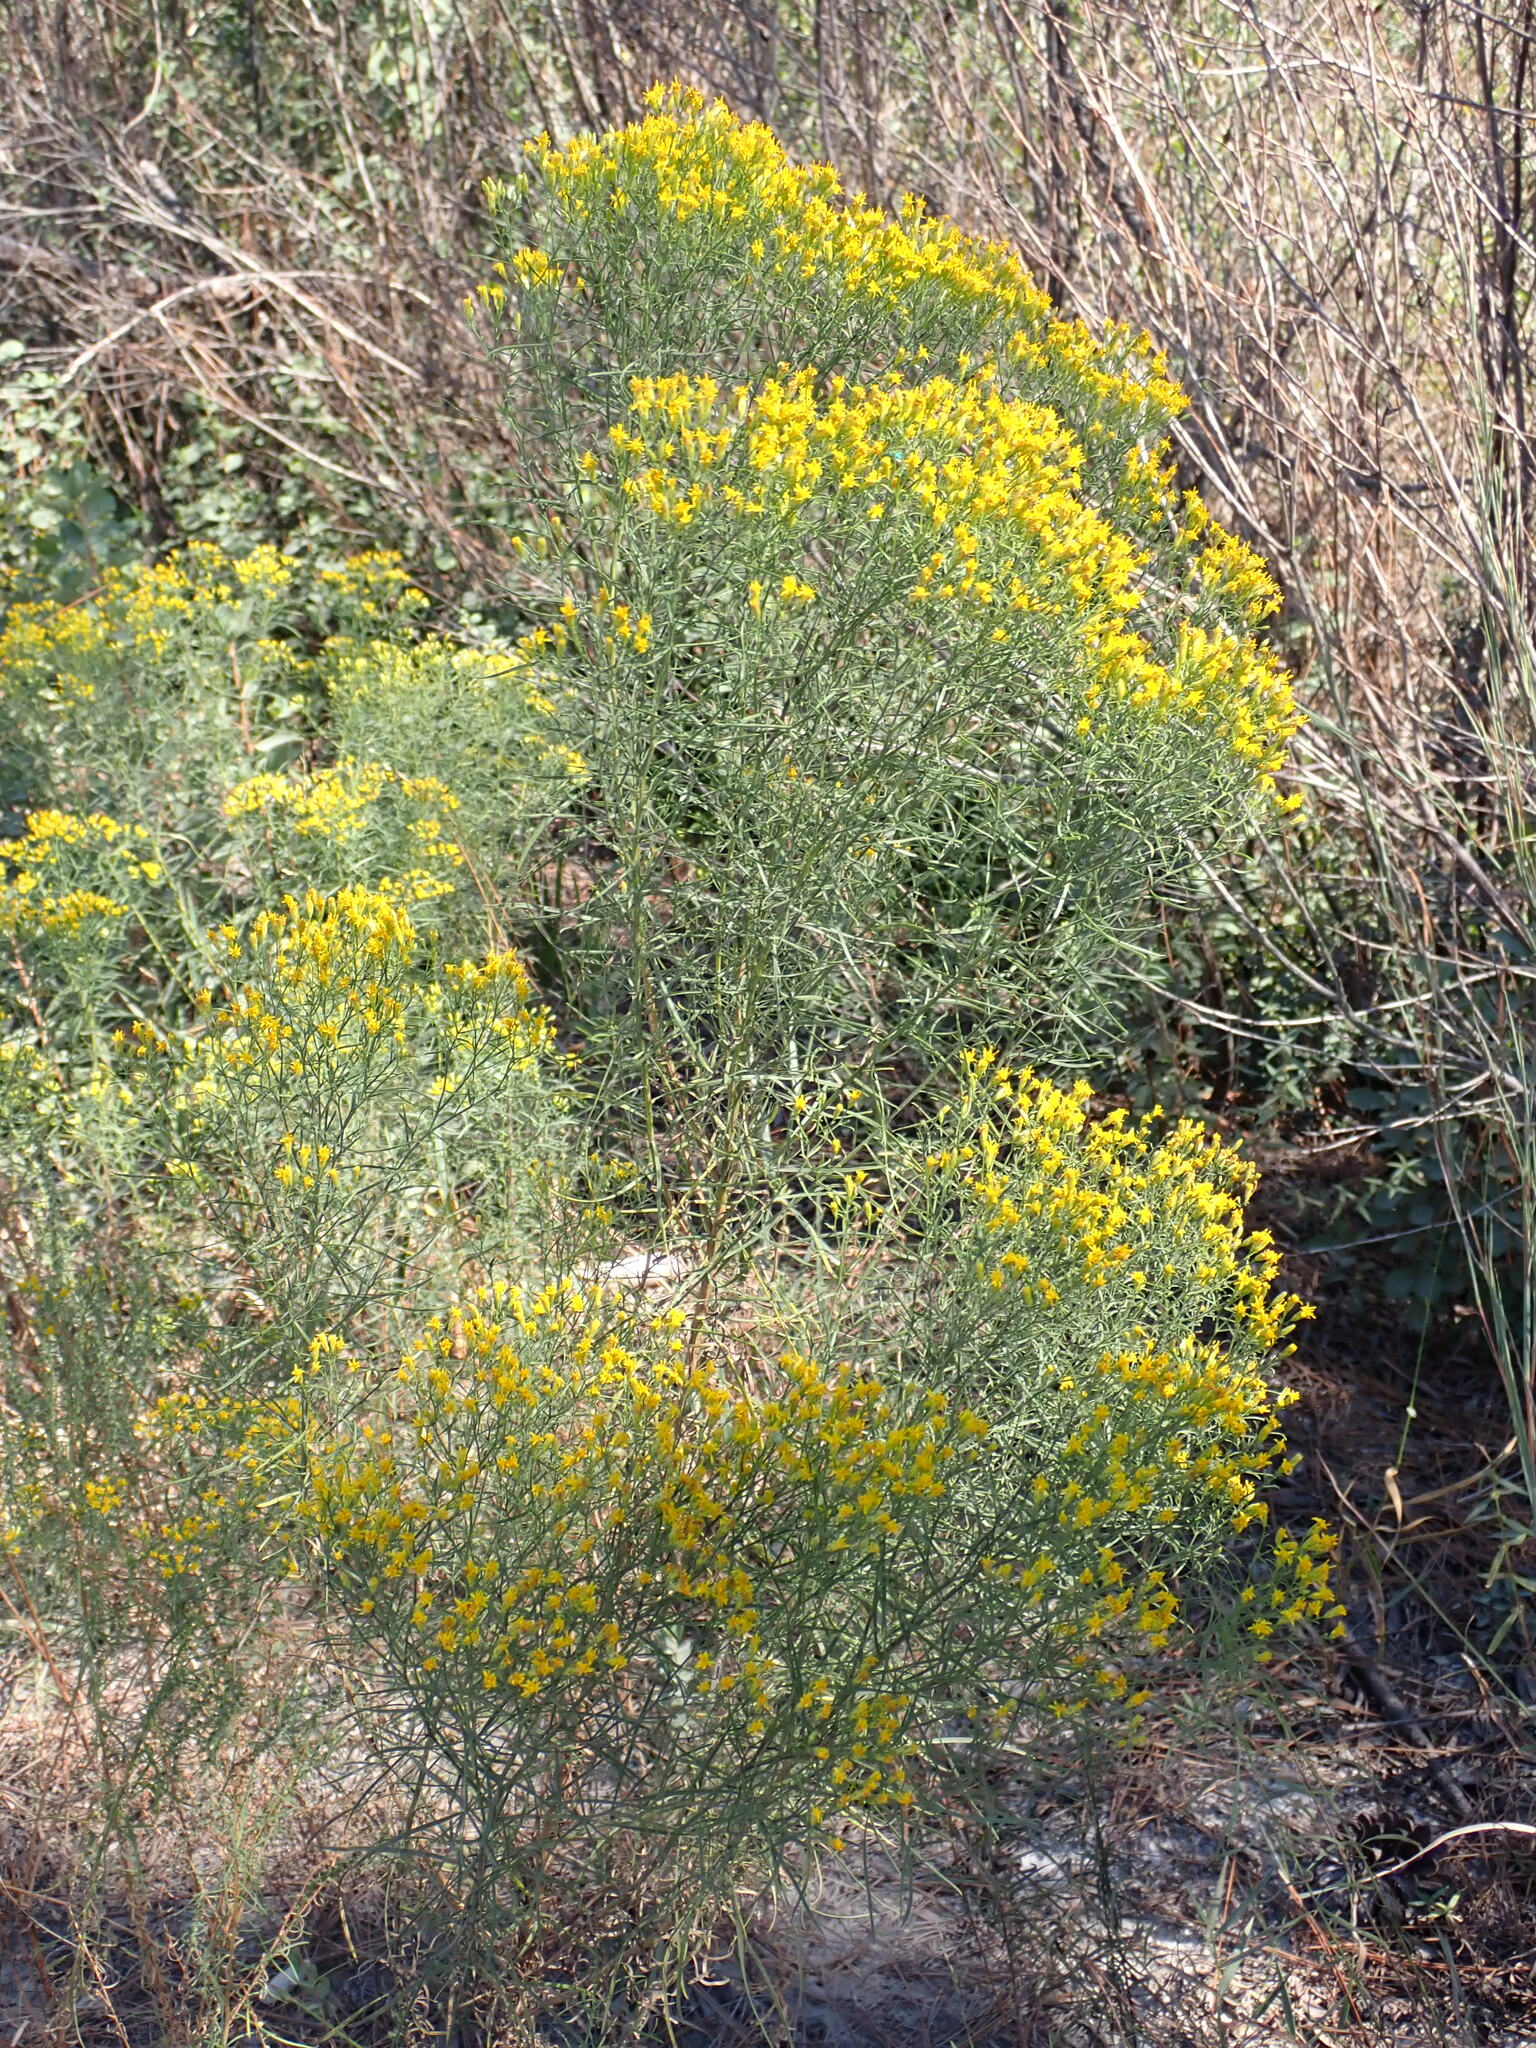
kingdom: Plantae
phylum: Tracheophyta
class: Magnoliopsida
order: Asterales
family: Asteraceae
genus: Euthamia
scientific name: Euthamia caroliniana
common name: Coastal plain goldentop
